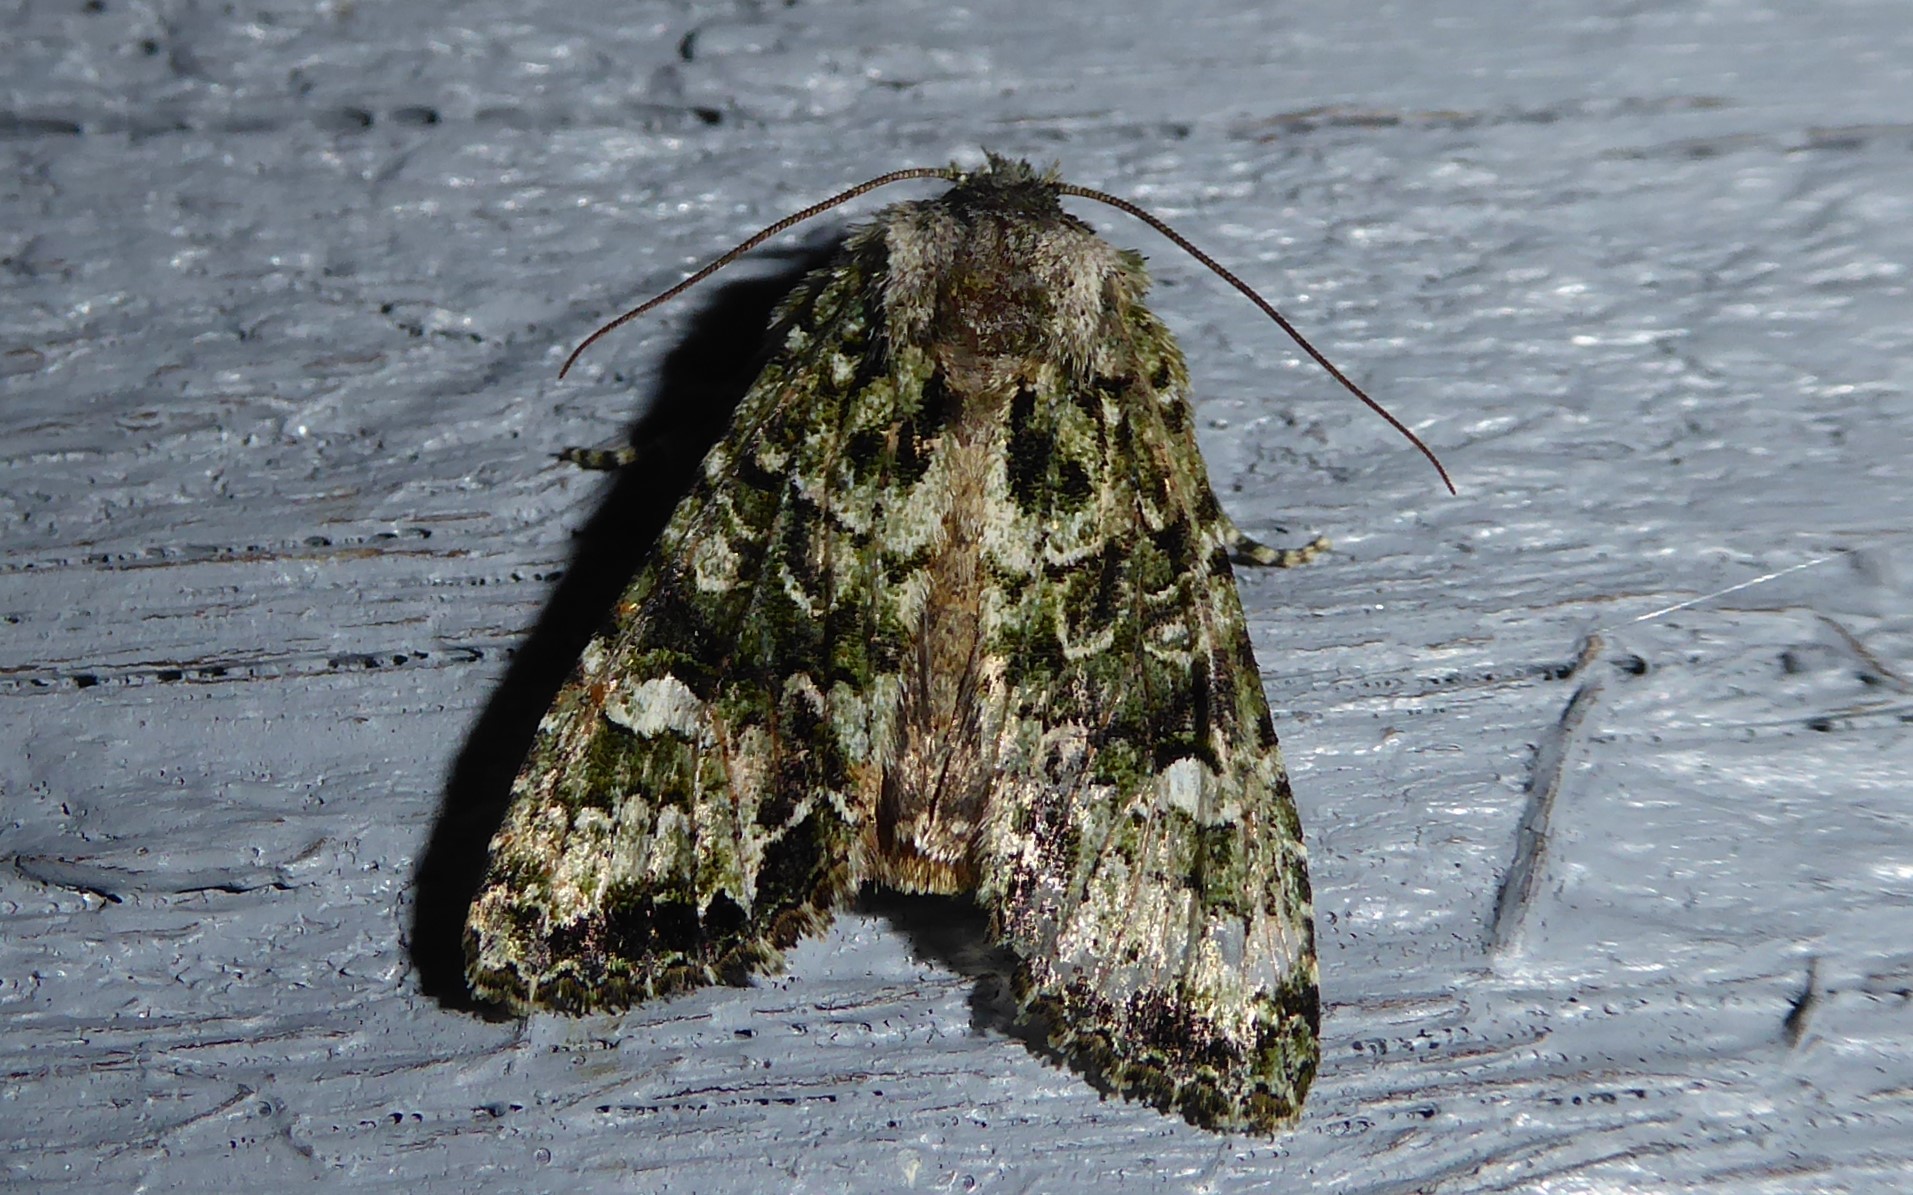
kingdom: Animalia
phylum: Arthropoda
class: Insecta
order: Lepidoptera
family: Noctuidae
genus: Ichneutica
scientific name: Ichneutica
